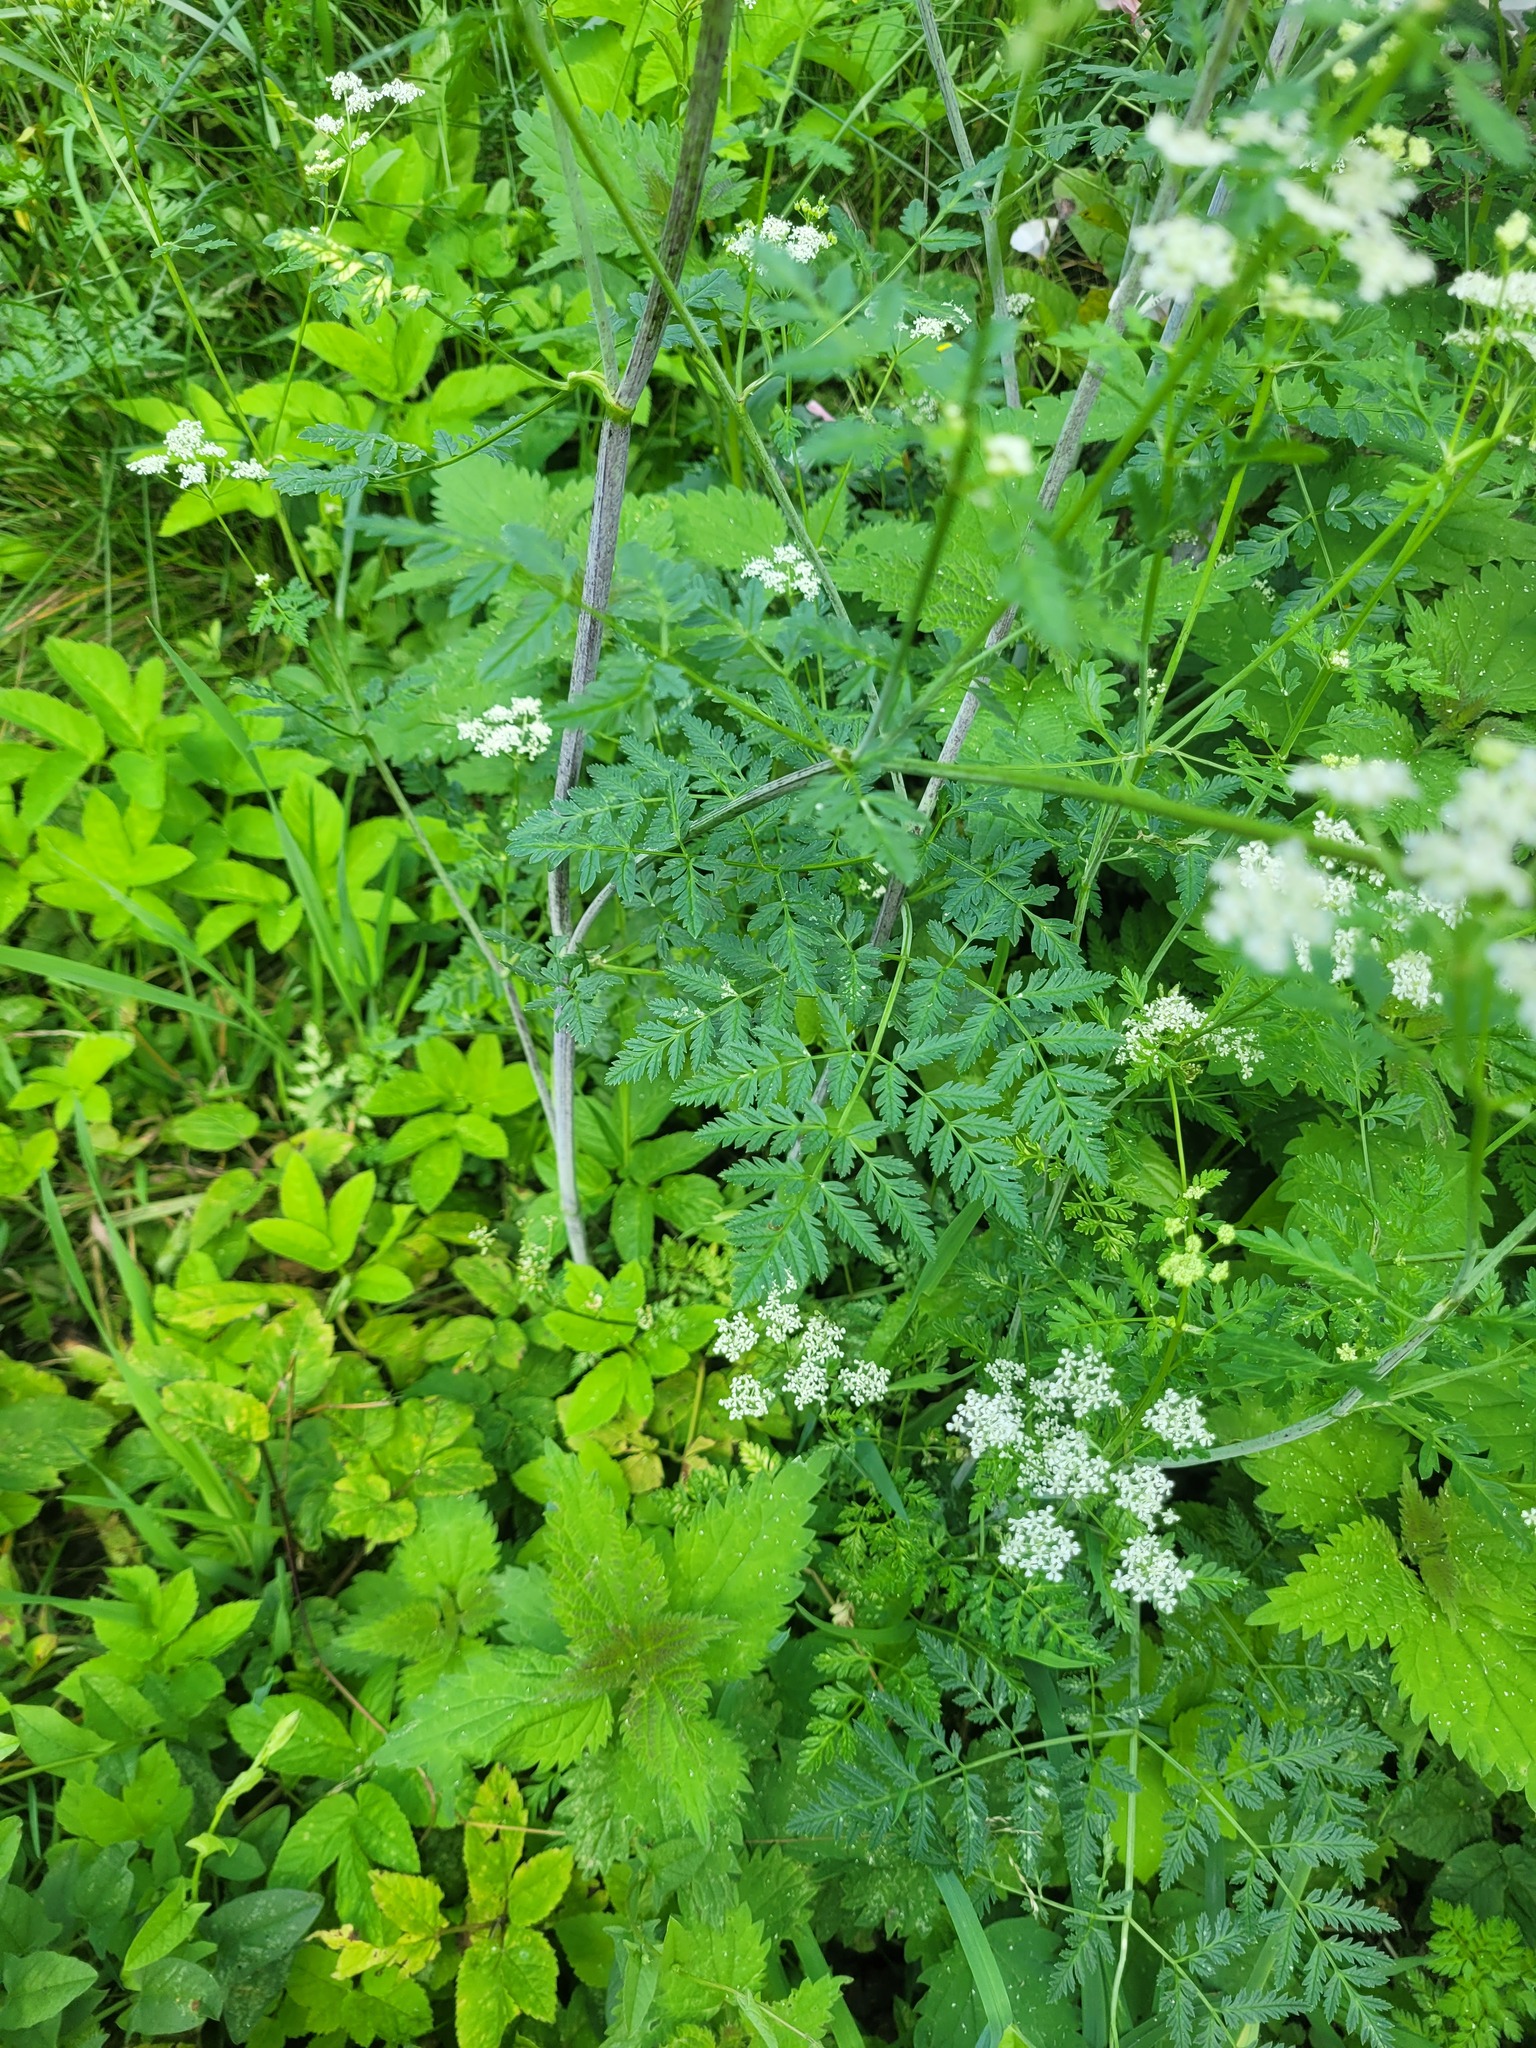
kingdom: Plantae
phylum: Tracheophyta
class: Magnoliopsida
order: Apiales
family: Apiaceae
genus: Conium
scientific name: Conium maculatum
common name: Hemlock
